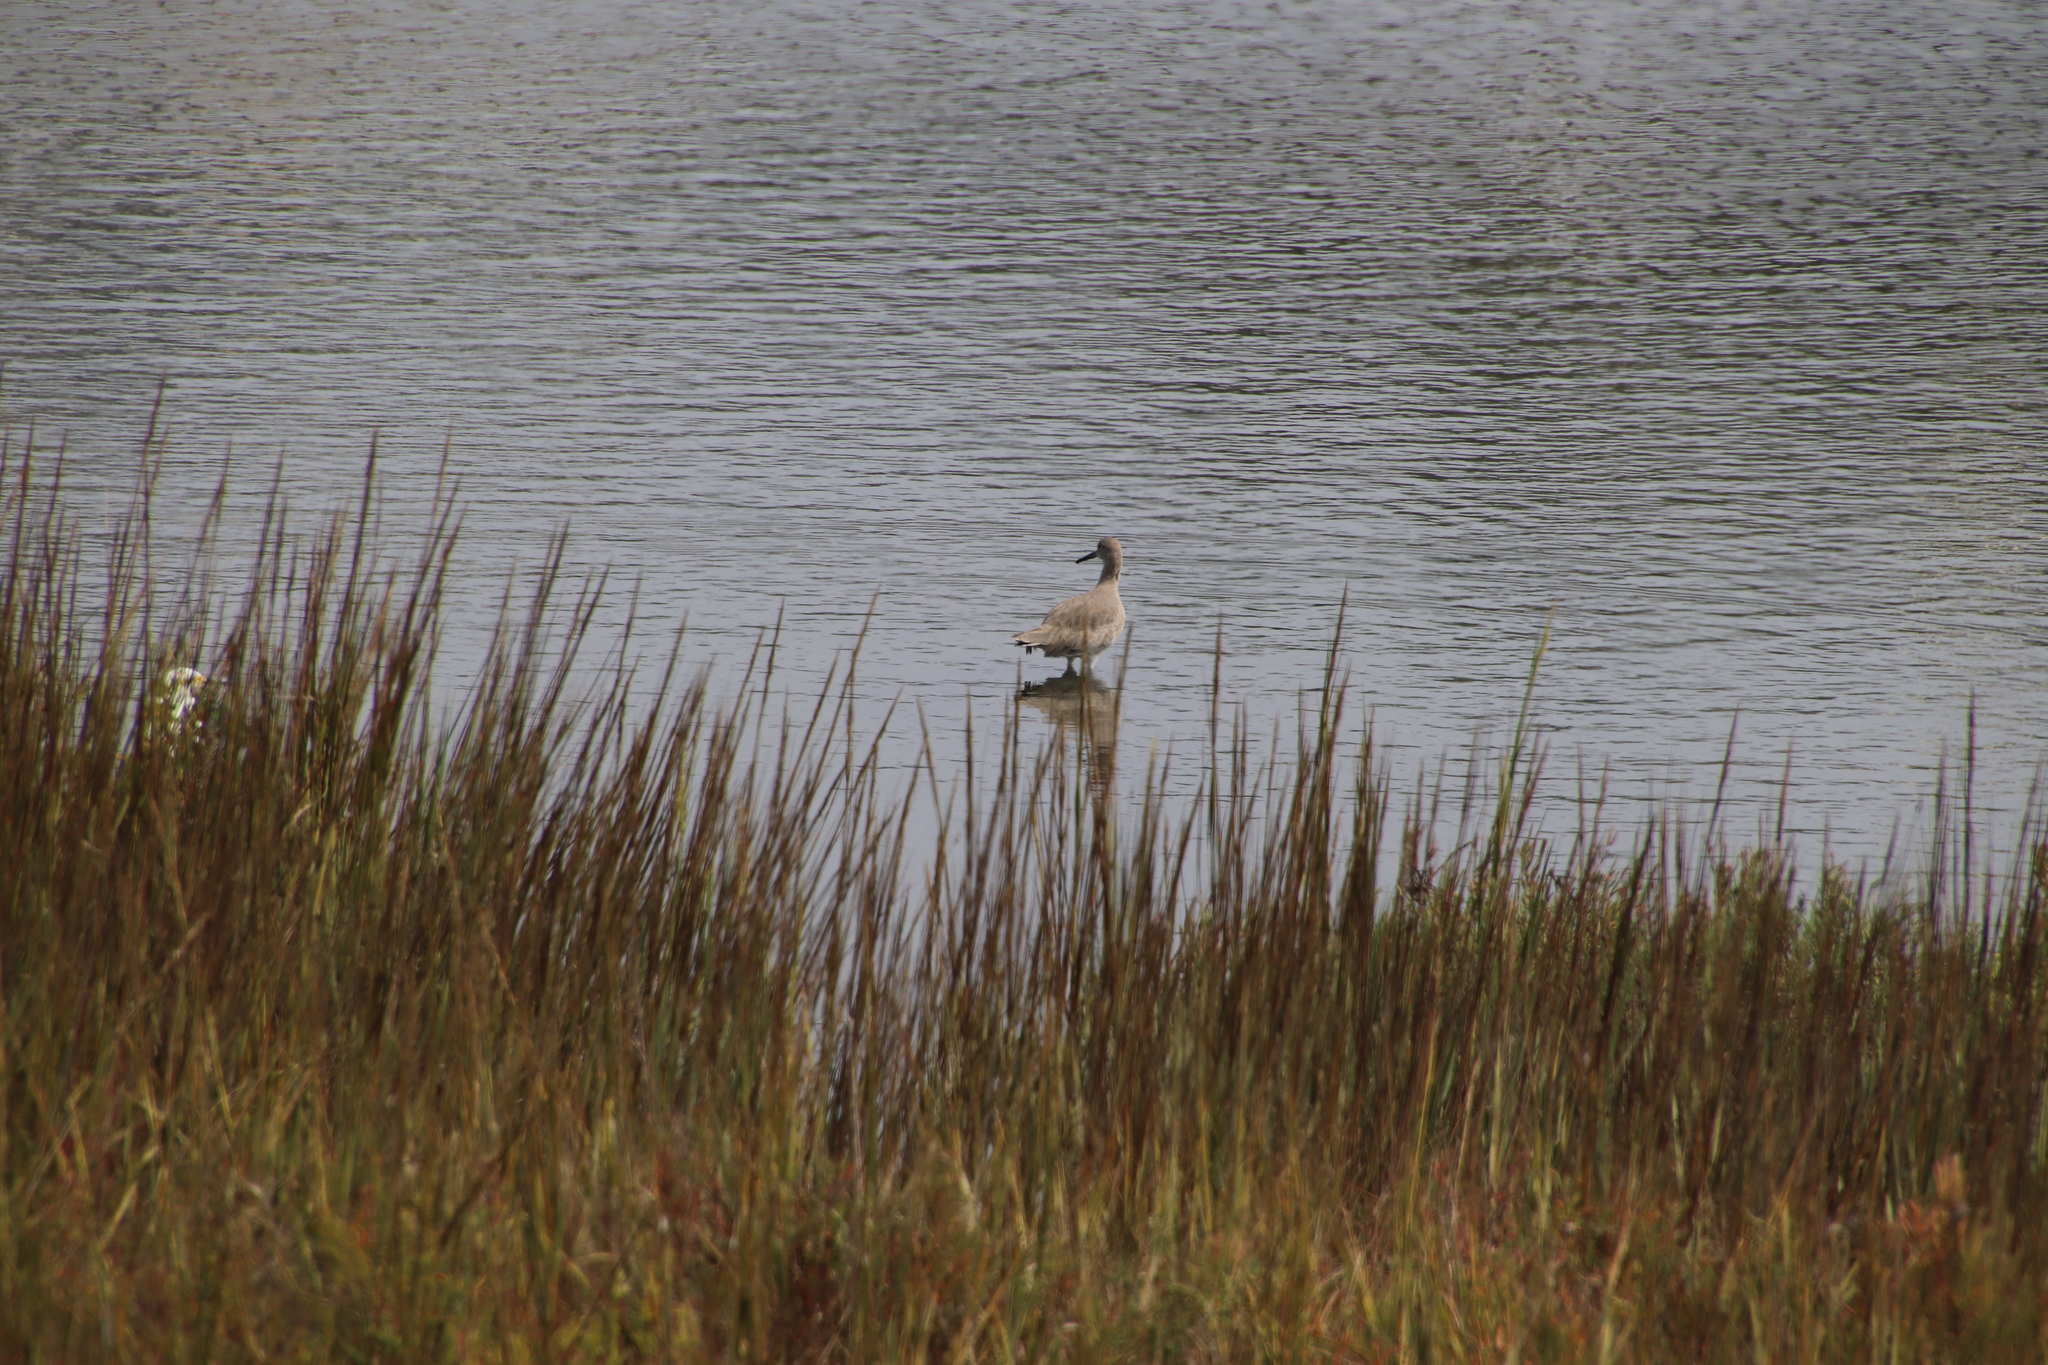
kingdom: Animalia
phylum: Chordata
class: Aves
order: Charadriiformes
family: Scolopacidae
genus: Tringa
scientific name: Tringa semipalmata
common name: Willet
